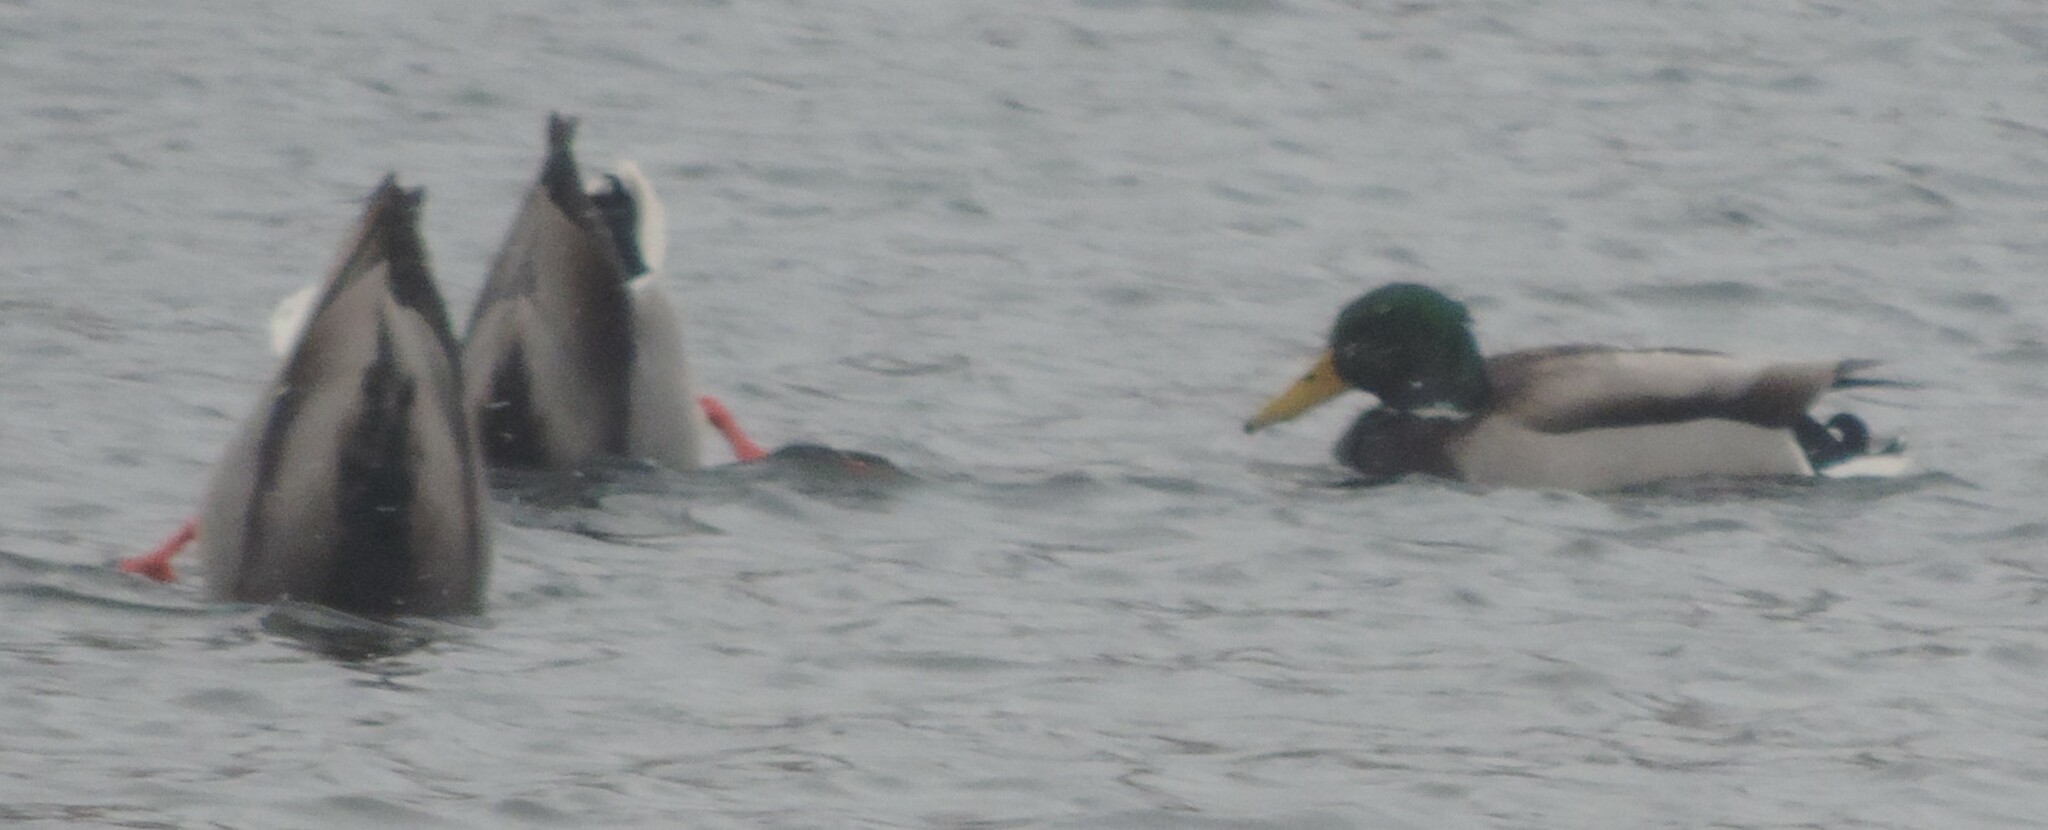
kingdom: Animalia
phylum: Chordata
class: Aves
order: Anseriformes
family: Anatidae
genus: Anas
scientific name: Anas platyrhynchos
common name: Mallard
